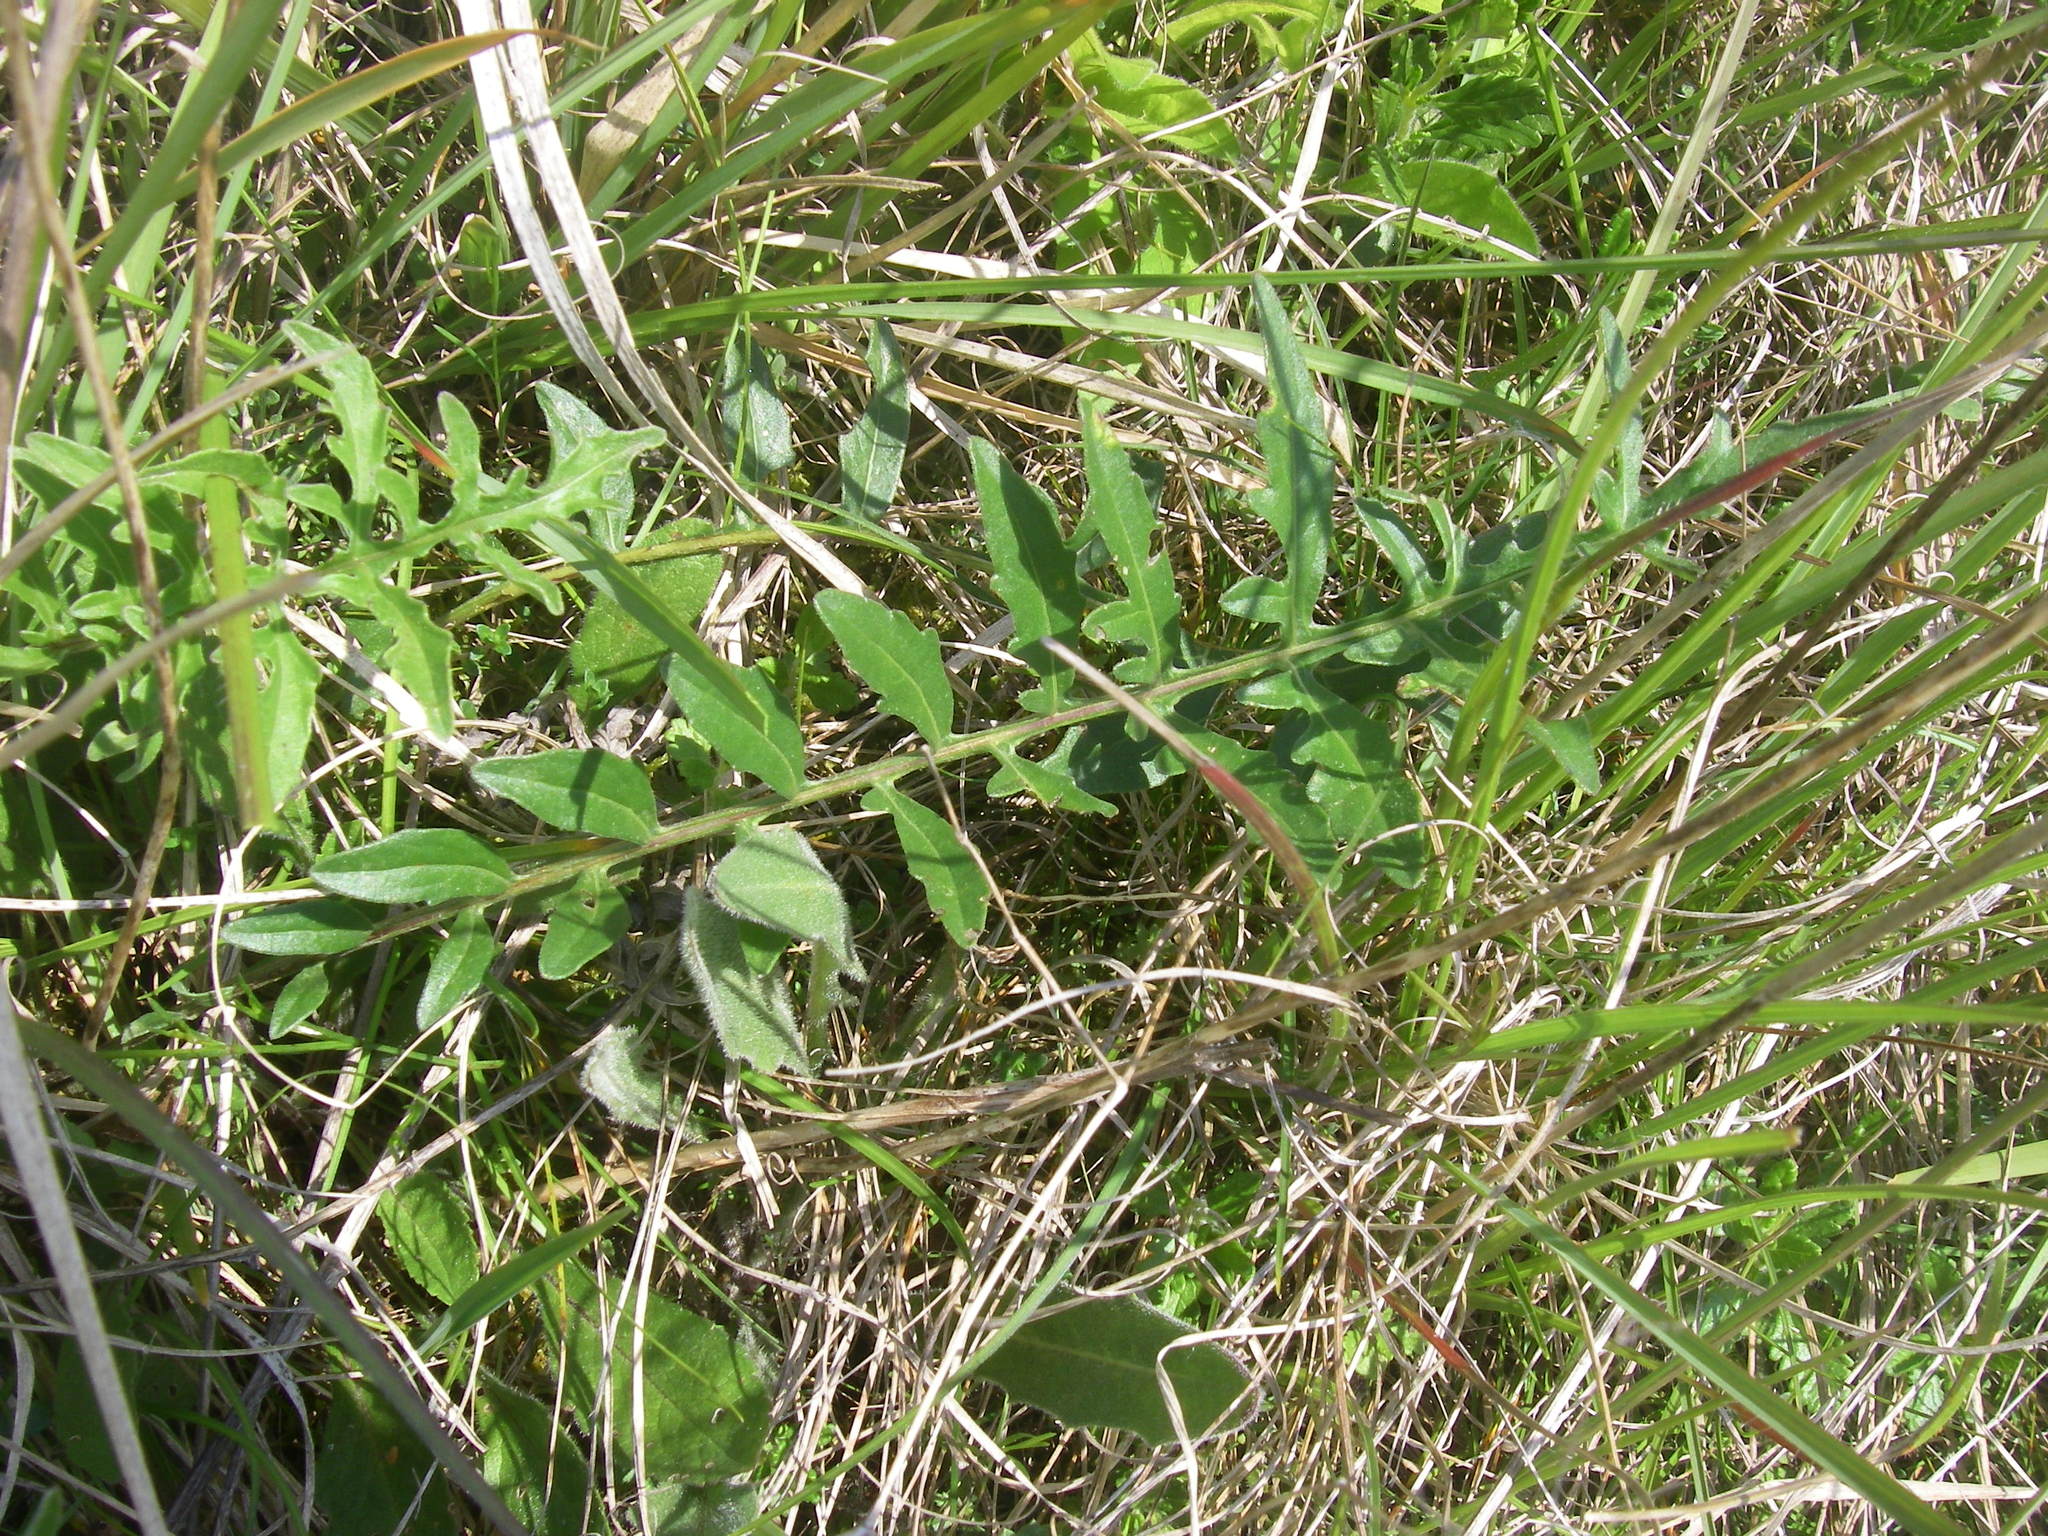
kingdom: Plantae
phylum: Tracheophyta
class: Magnoliopsida
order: Dipsacales
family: Caprifoliaceae
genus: Scabiosa
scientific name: Scabiosa columbaria
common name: Small scabious
